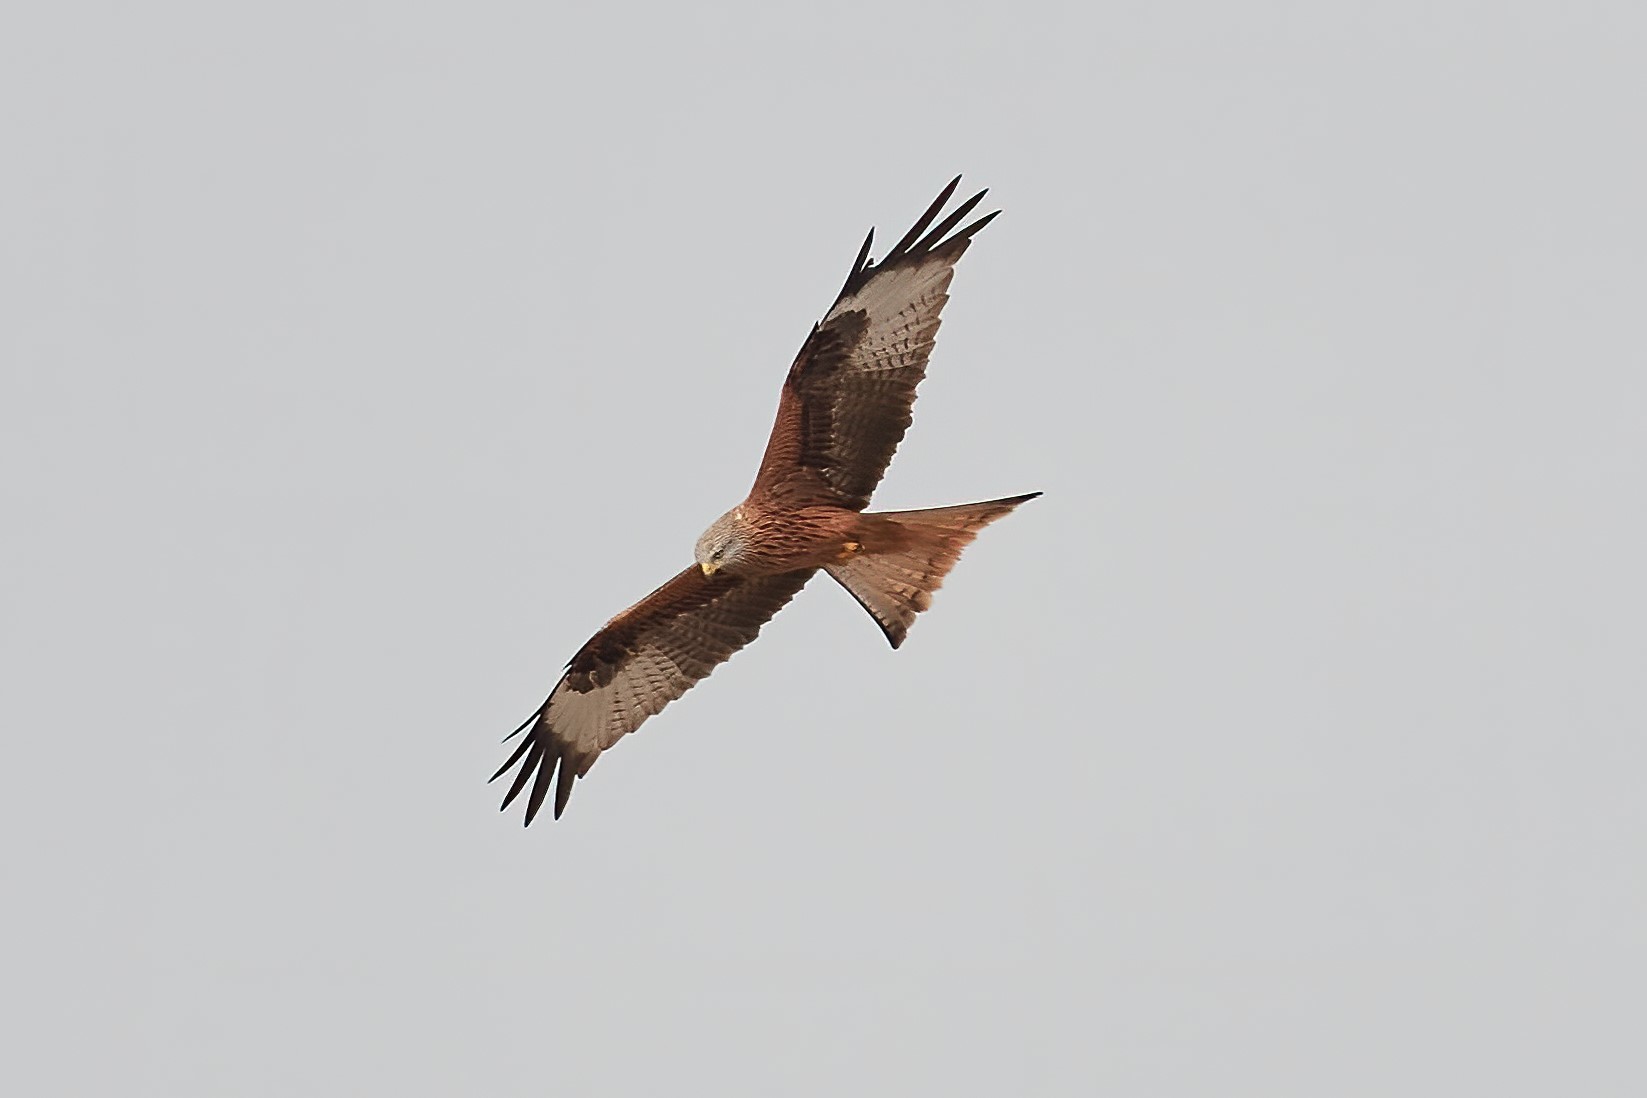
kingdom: Animalia
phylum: Chordata
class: Aves
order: Accipitriformes
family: Accipitridae
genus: Milvus
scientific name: Milvus milvus
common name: Red kite
